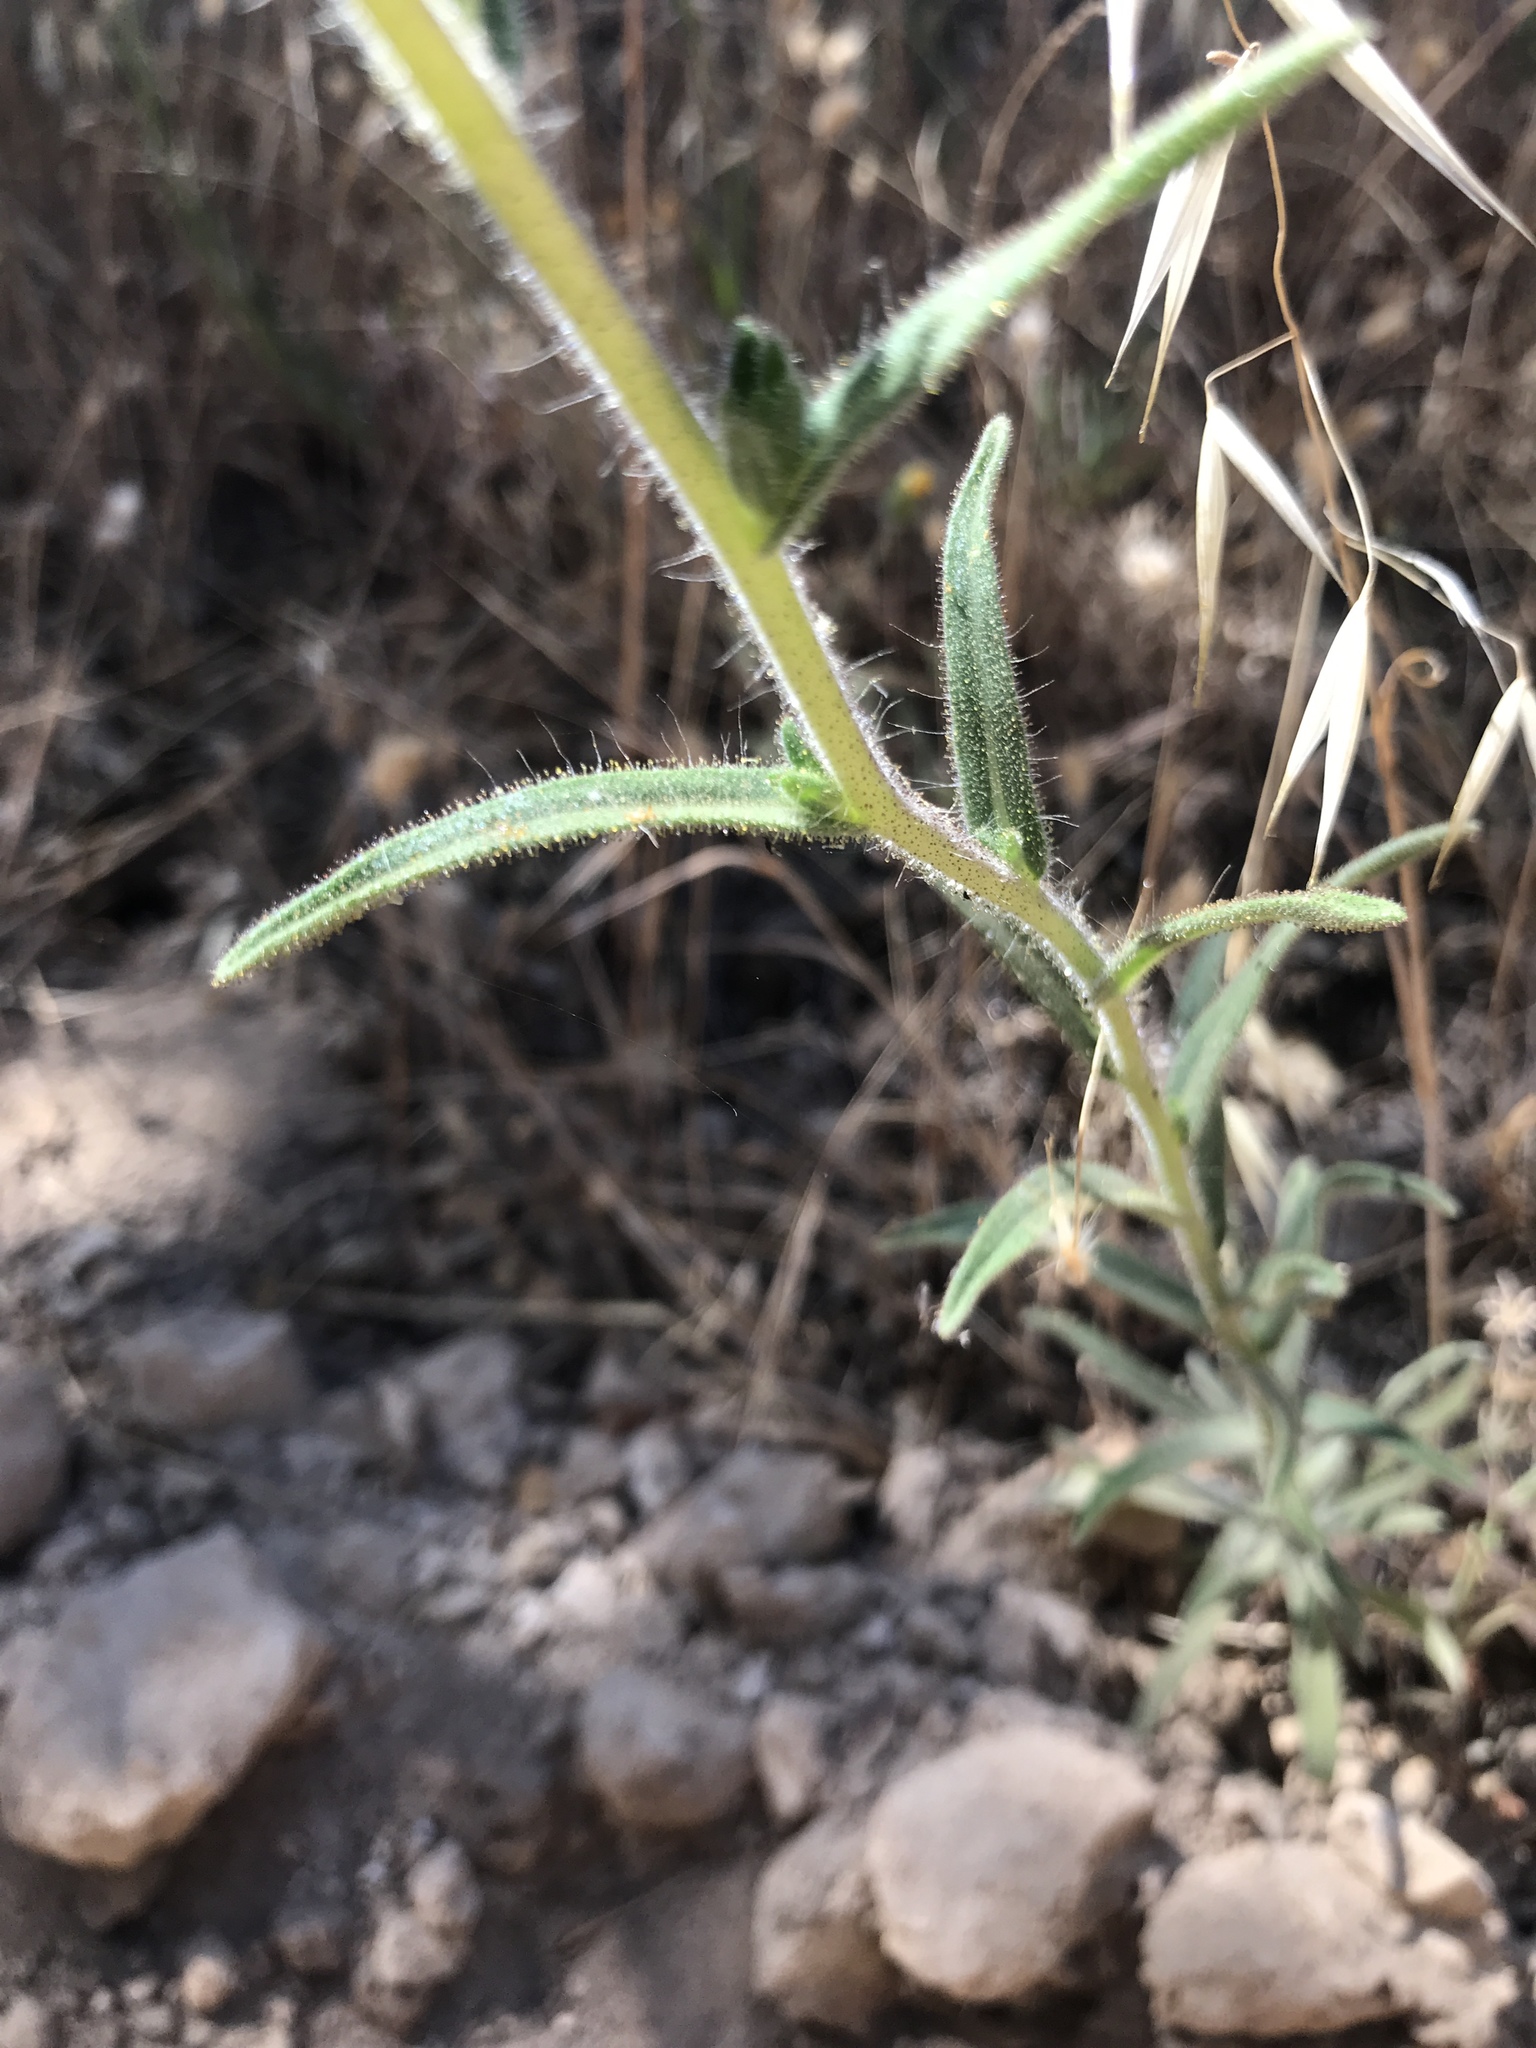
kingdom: Plantae
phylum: Tracheophyta
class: Magnoliopsida
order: Asterales
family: Asteraceae
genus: Madia
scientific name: Madia elegans
